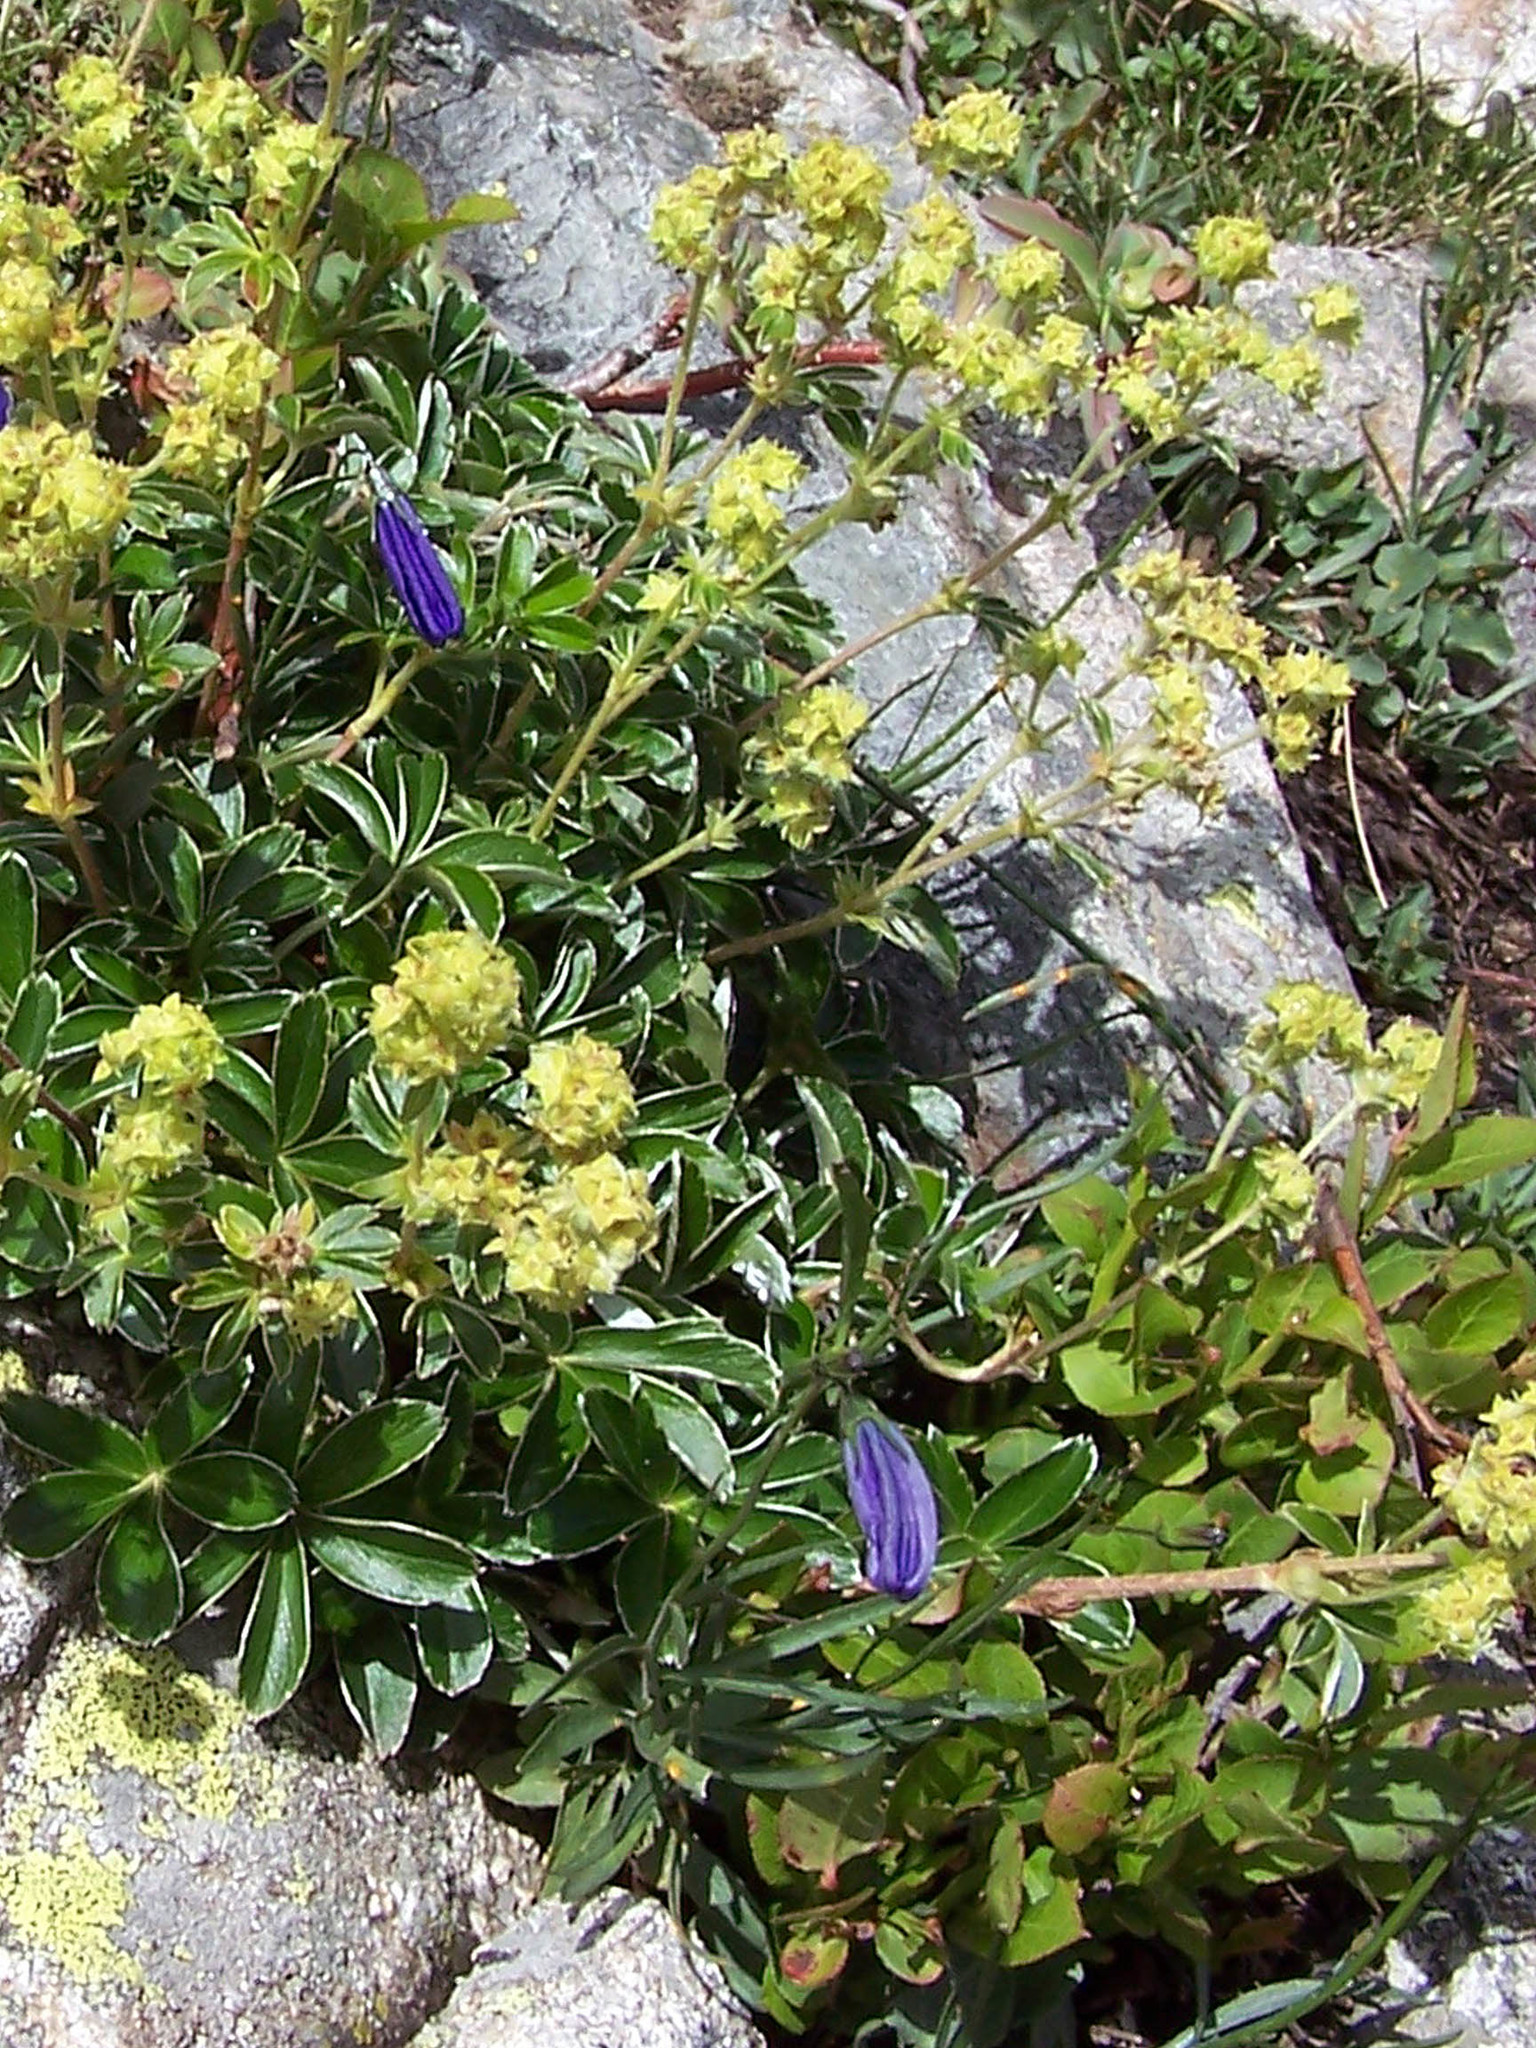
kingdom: Plantae
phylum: Tracheophyta
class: Magnoliopsida
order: Rosales
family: Rosaceae
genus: Alchemilla
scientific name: Alchemilla alpina
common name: Alpine lady's-mantle
